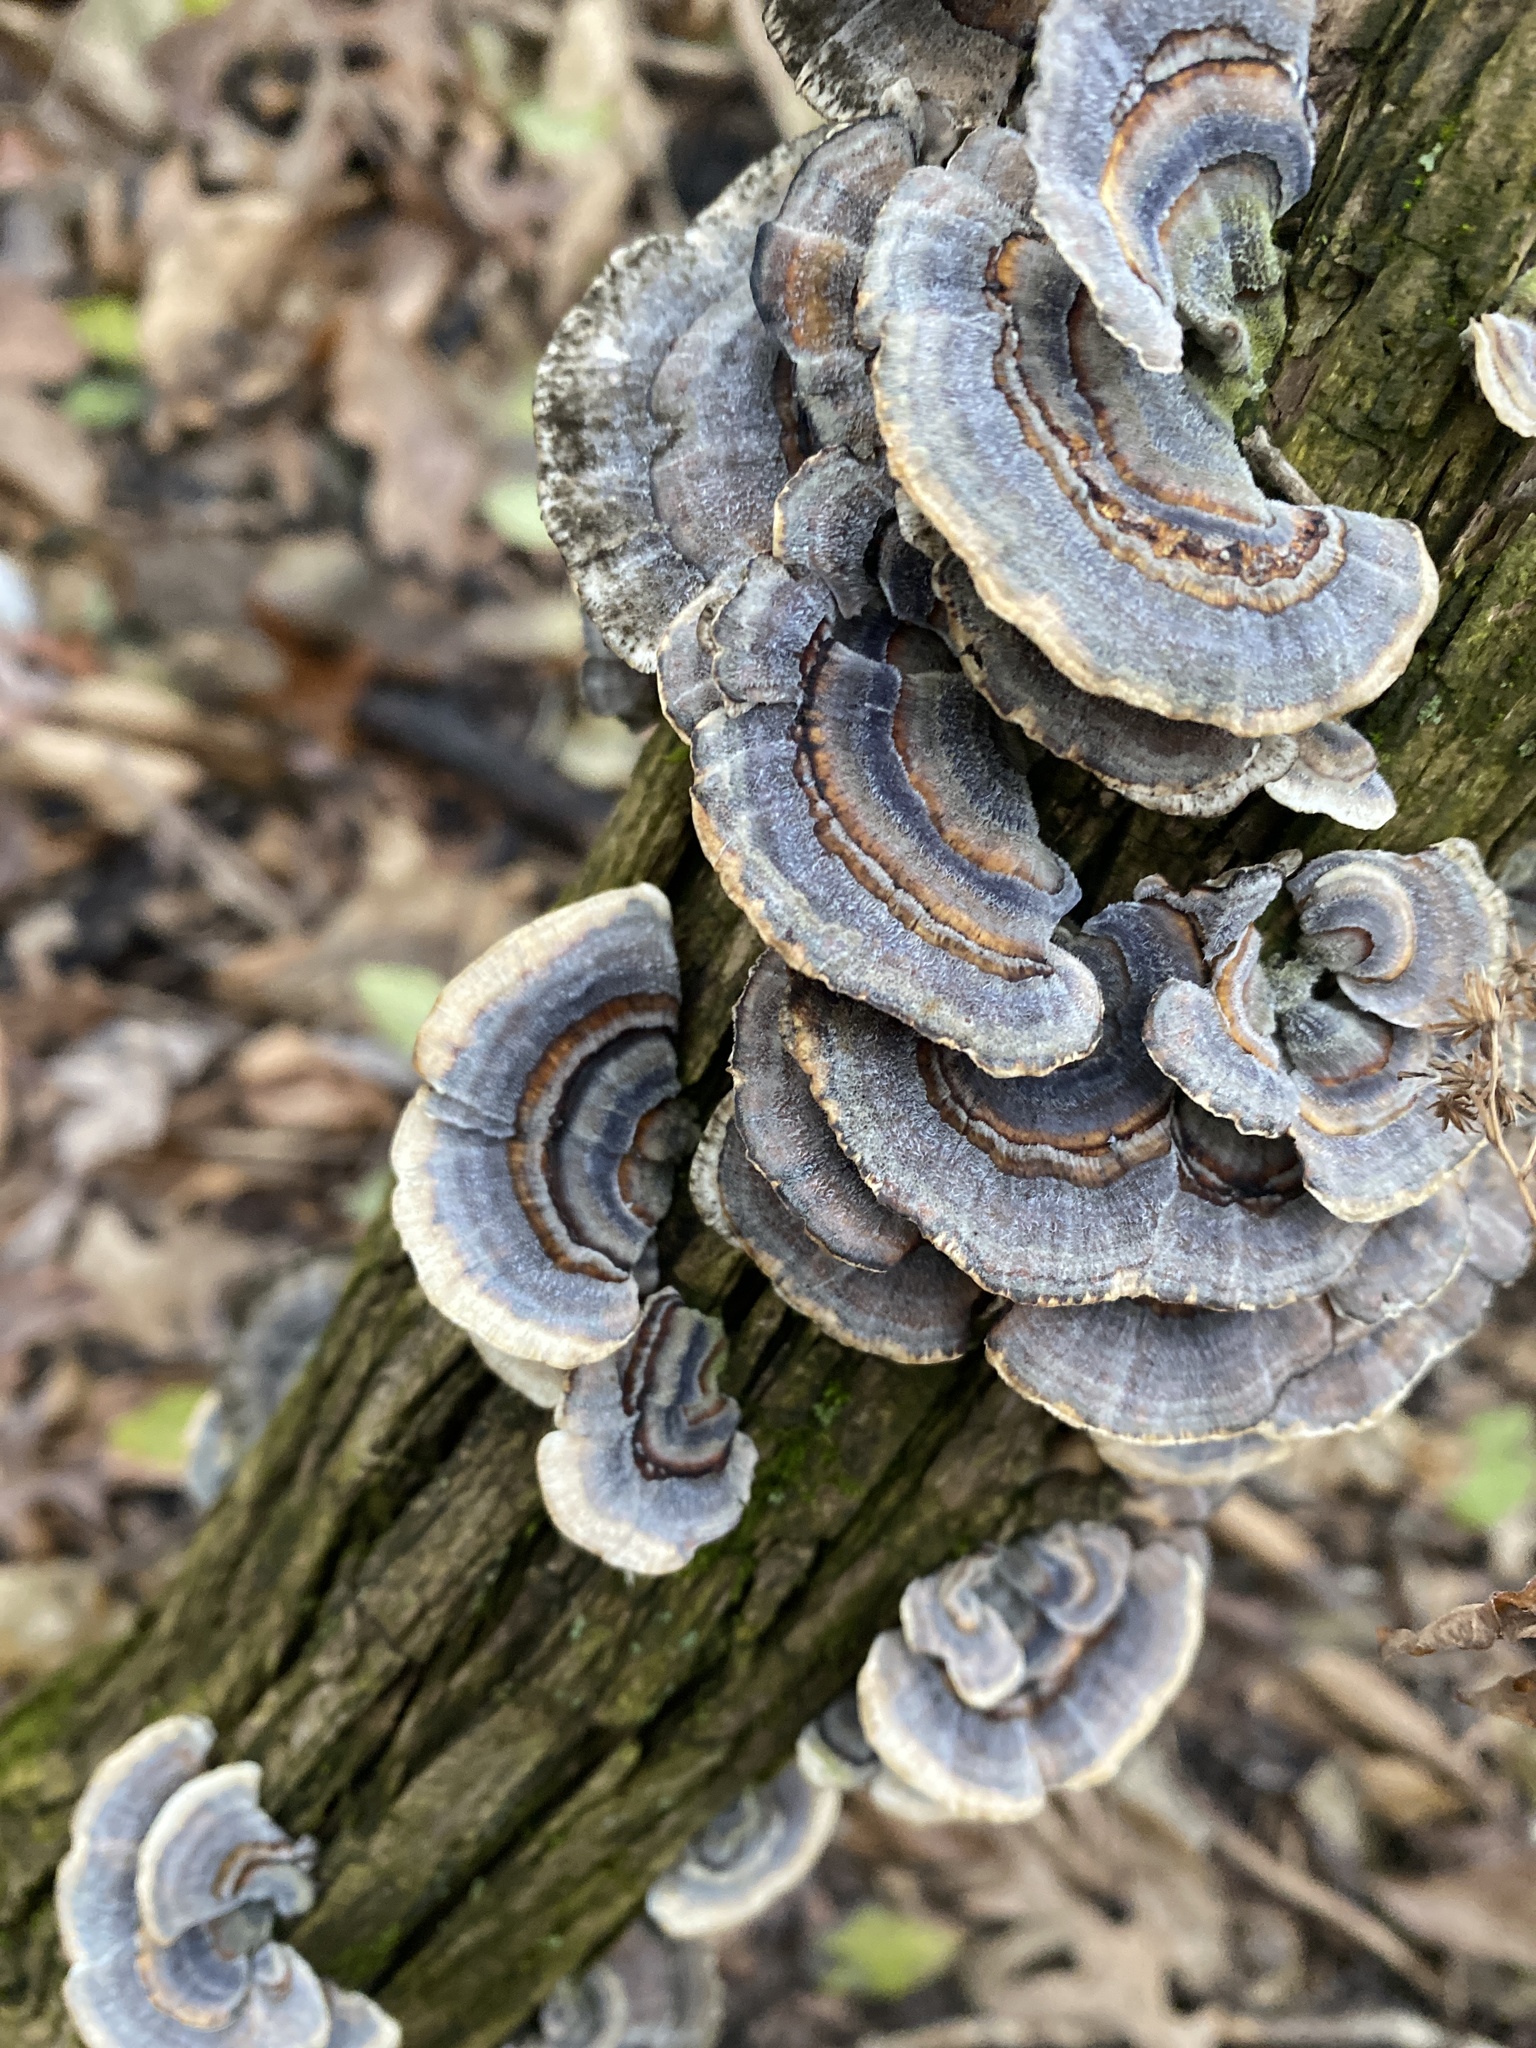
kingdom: Fungi
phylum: Basidiomycota
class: Agaricomycetes
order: Polyporales
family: Polyporaceae
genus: Trametes
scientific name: Trametes versicolor
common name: Turkeytail
